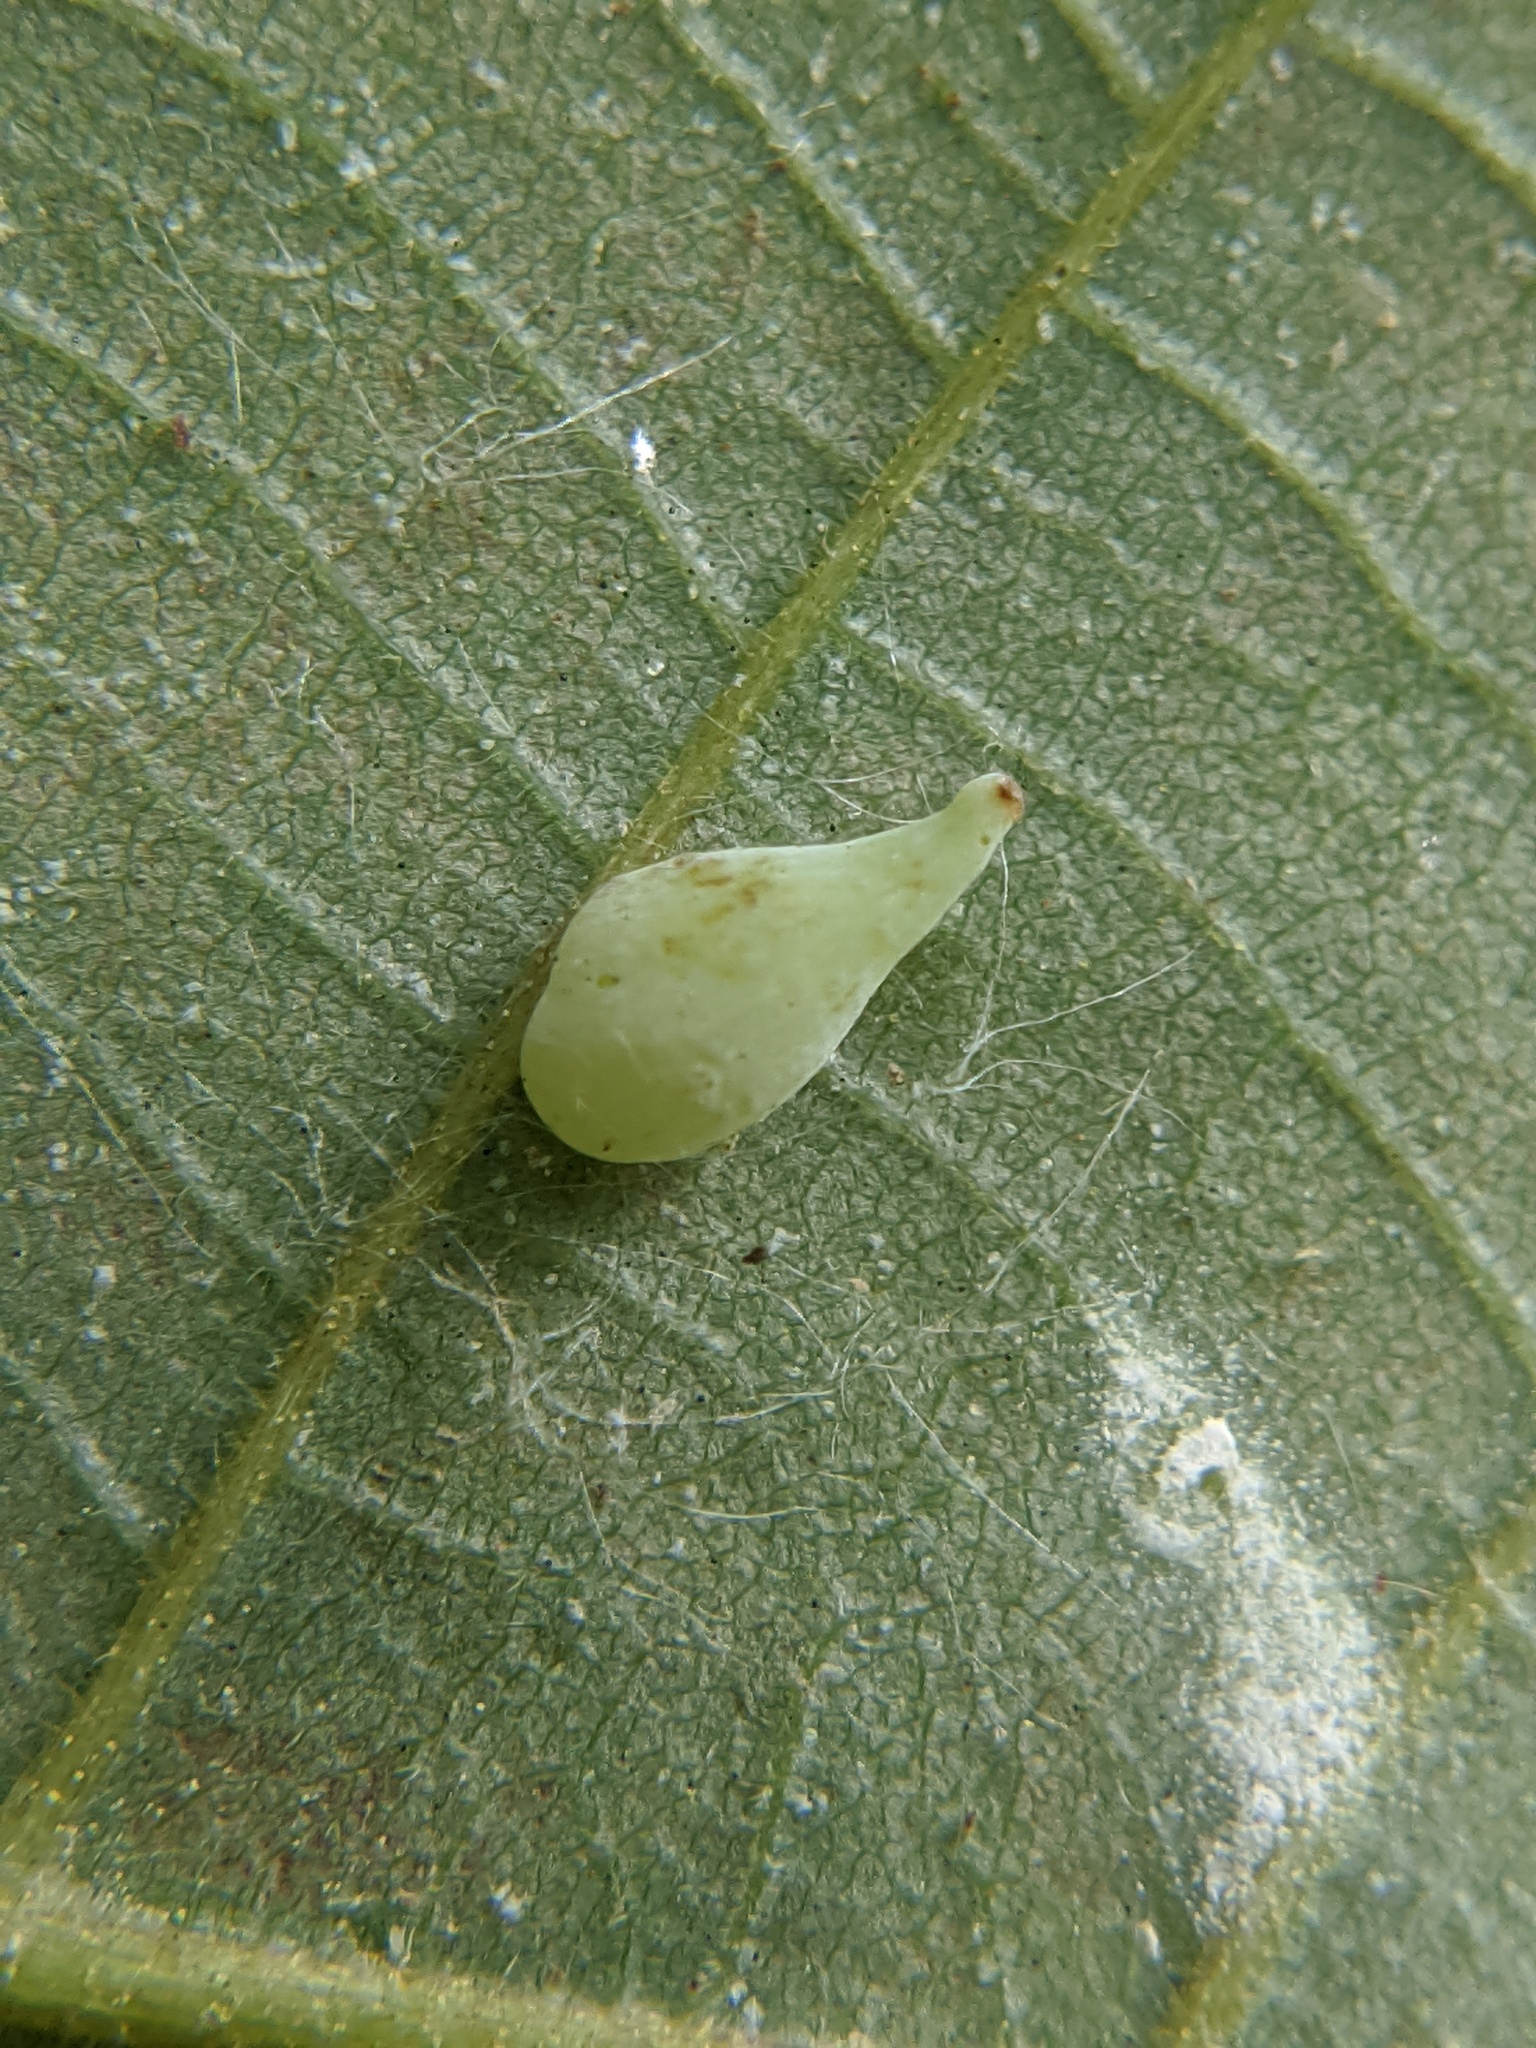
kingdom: Animalia
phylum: Arthropoda
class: Insecta
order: Diptera
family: Cecidomyiidae
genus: Caryomyia
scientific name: Caryomyia caryaecola
